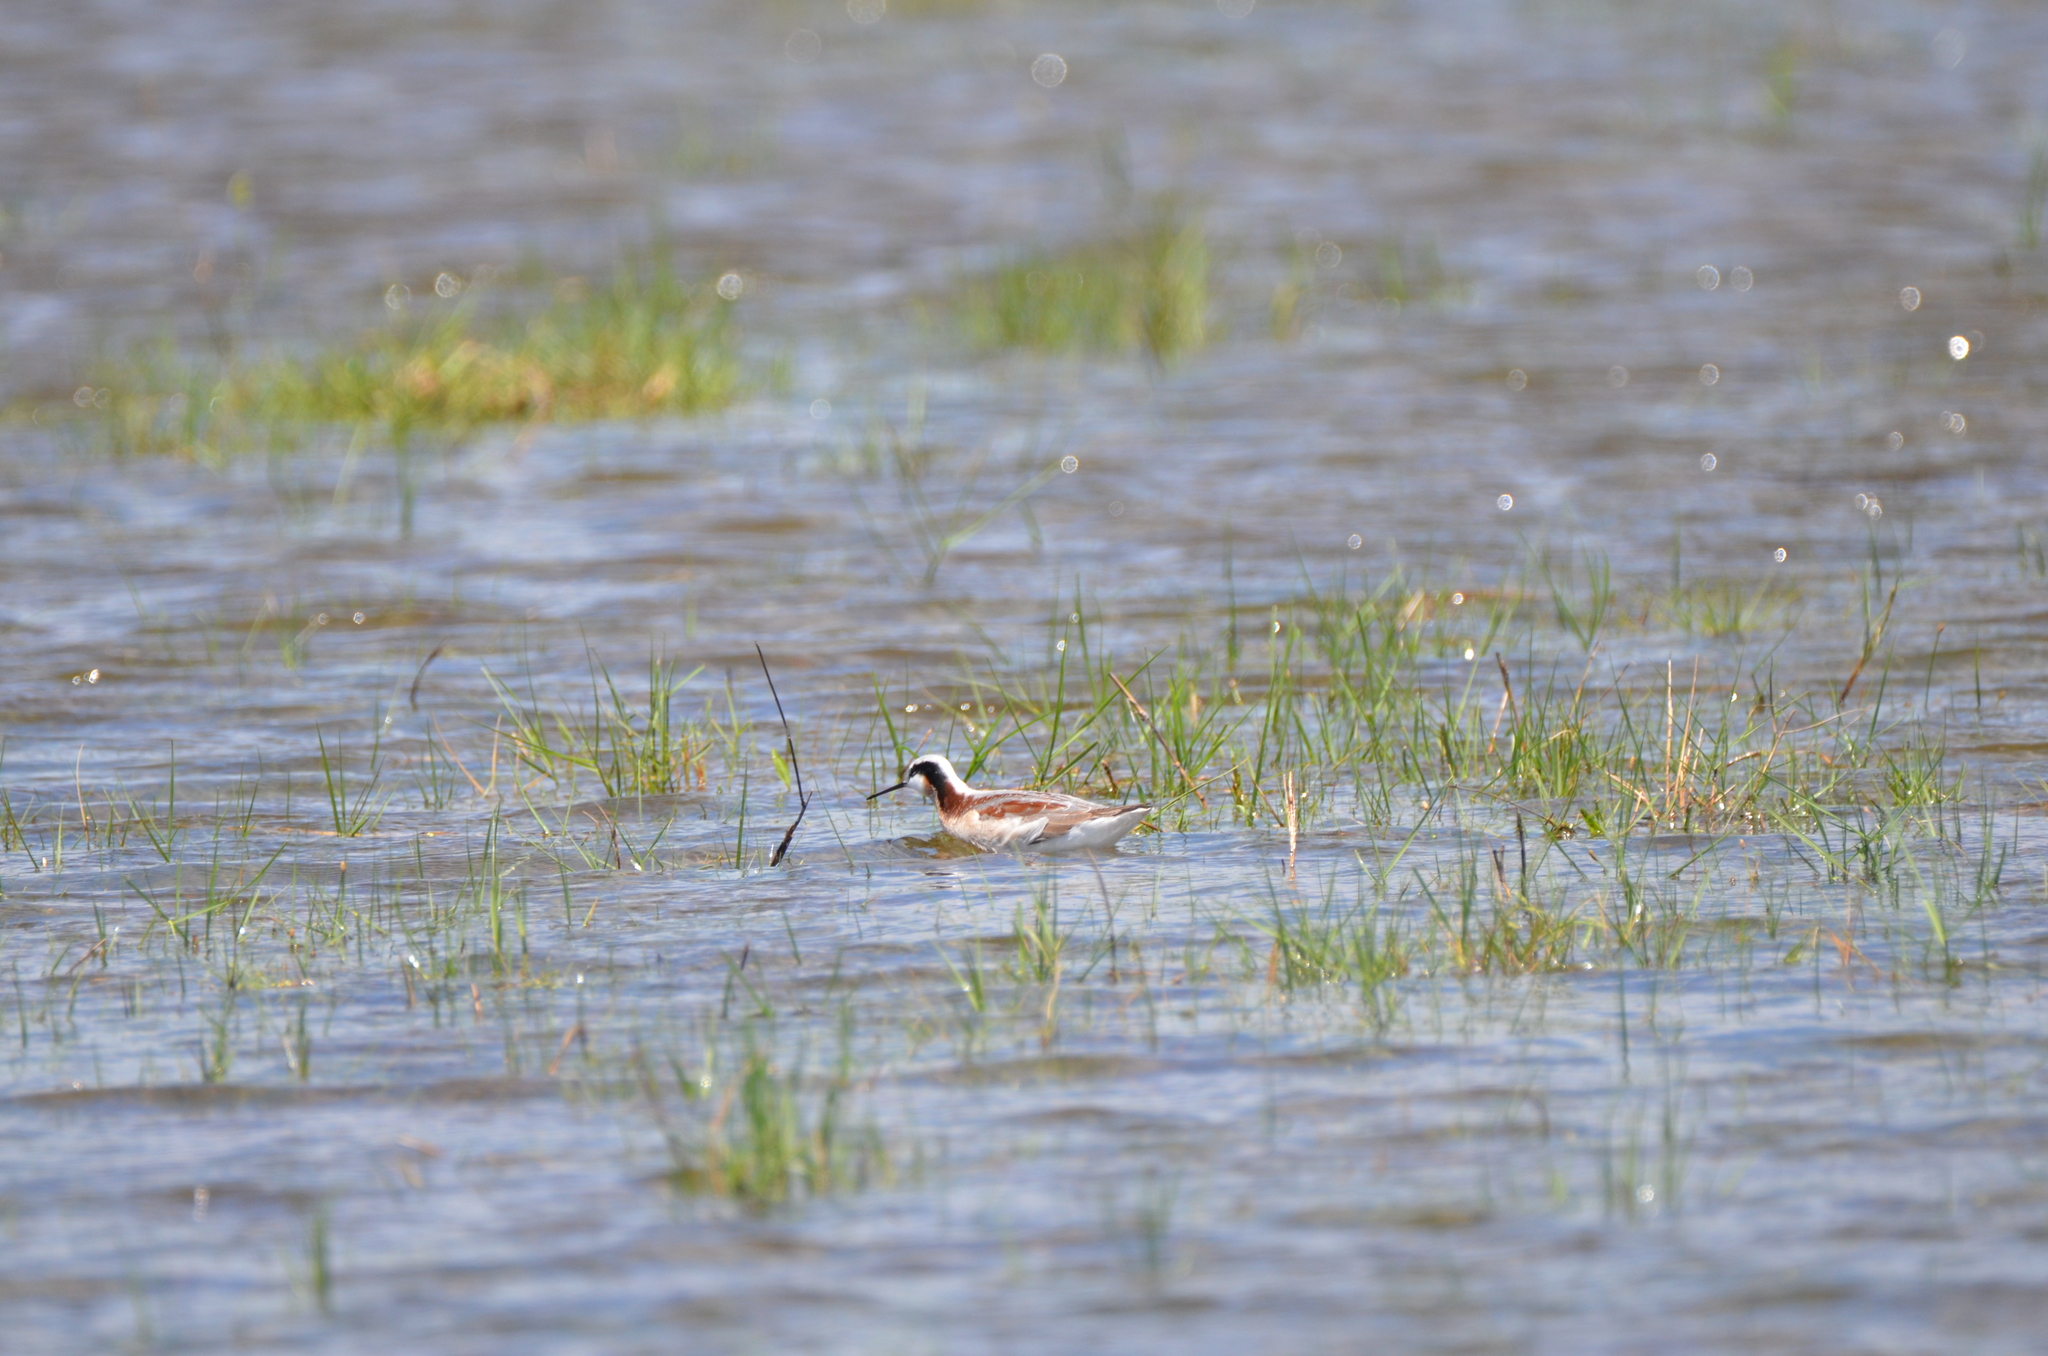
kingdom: Animalia
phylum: Chordata
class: Aves
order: Charadriiformes
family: Scolopacidae
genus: Phalaropus
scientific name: Phalaropus tricolor
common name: Wilson's phalarope
